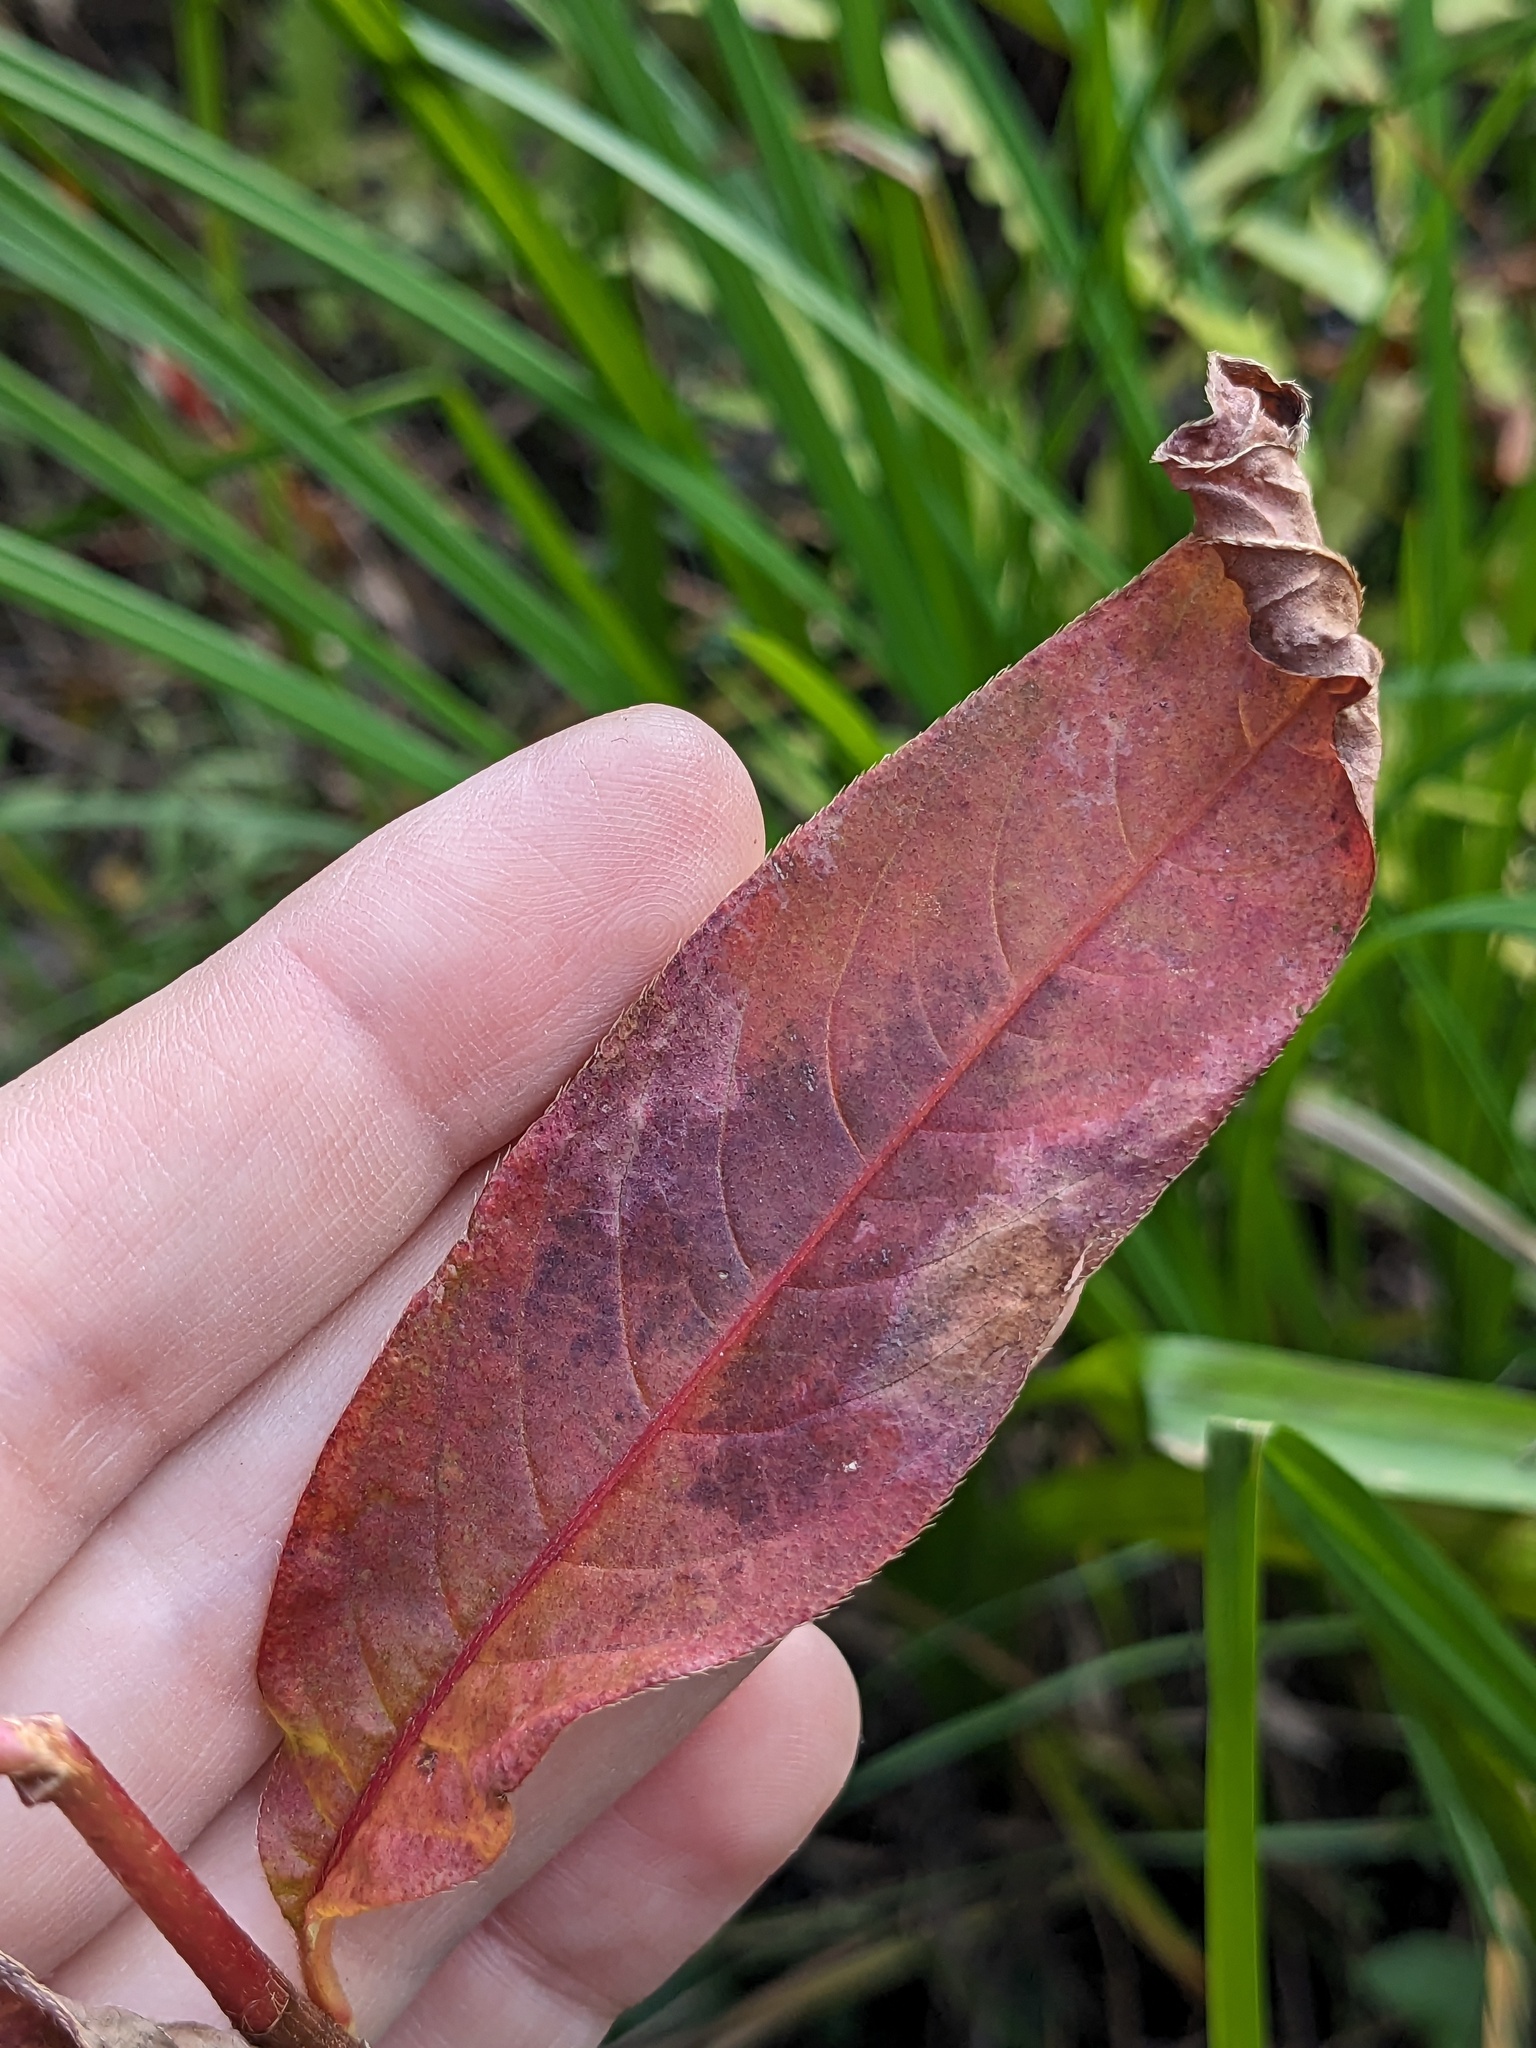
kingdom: Plantae
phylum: Tracheophyta
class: Magnoliopsida
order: Caryophyllales
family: Polygonaceae
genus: Persicaria
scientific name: Persicaria extremiorientalis
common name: Far-eastern smartweed
